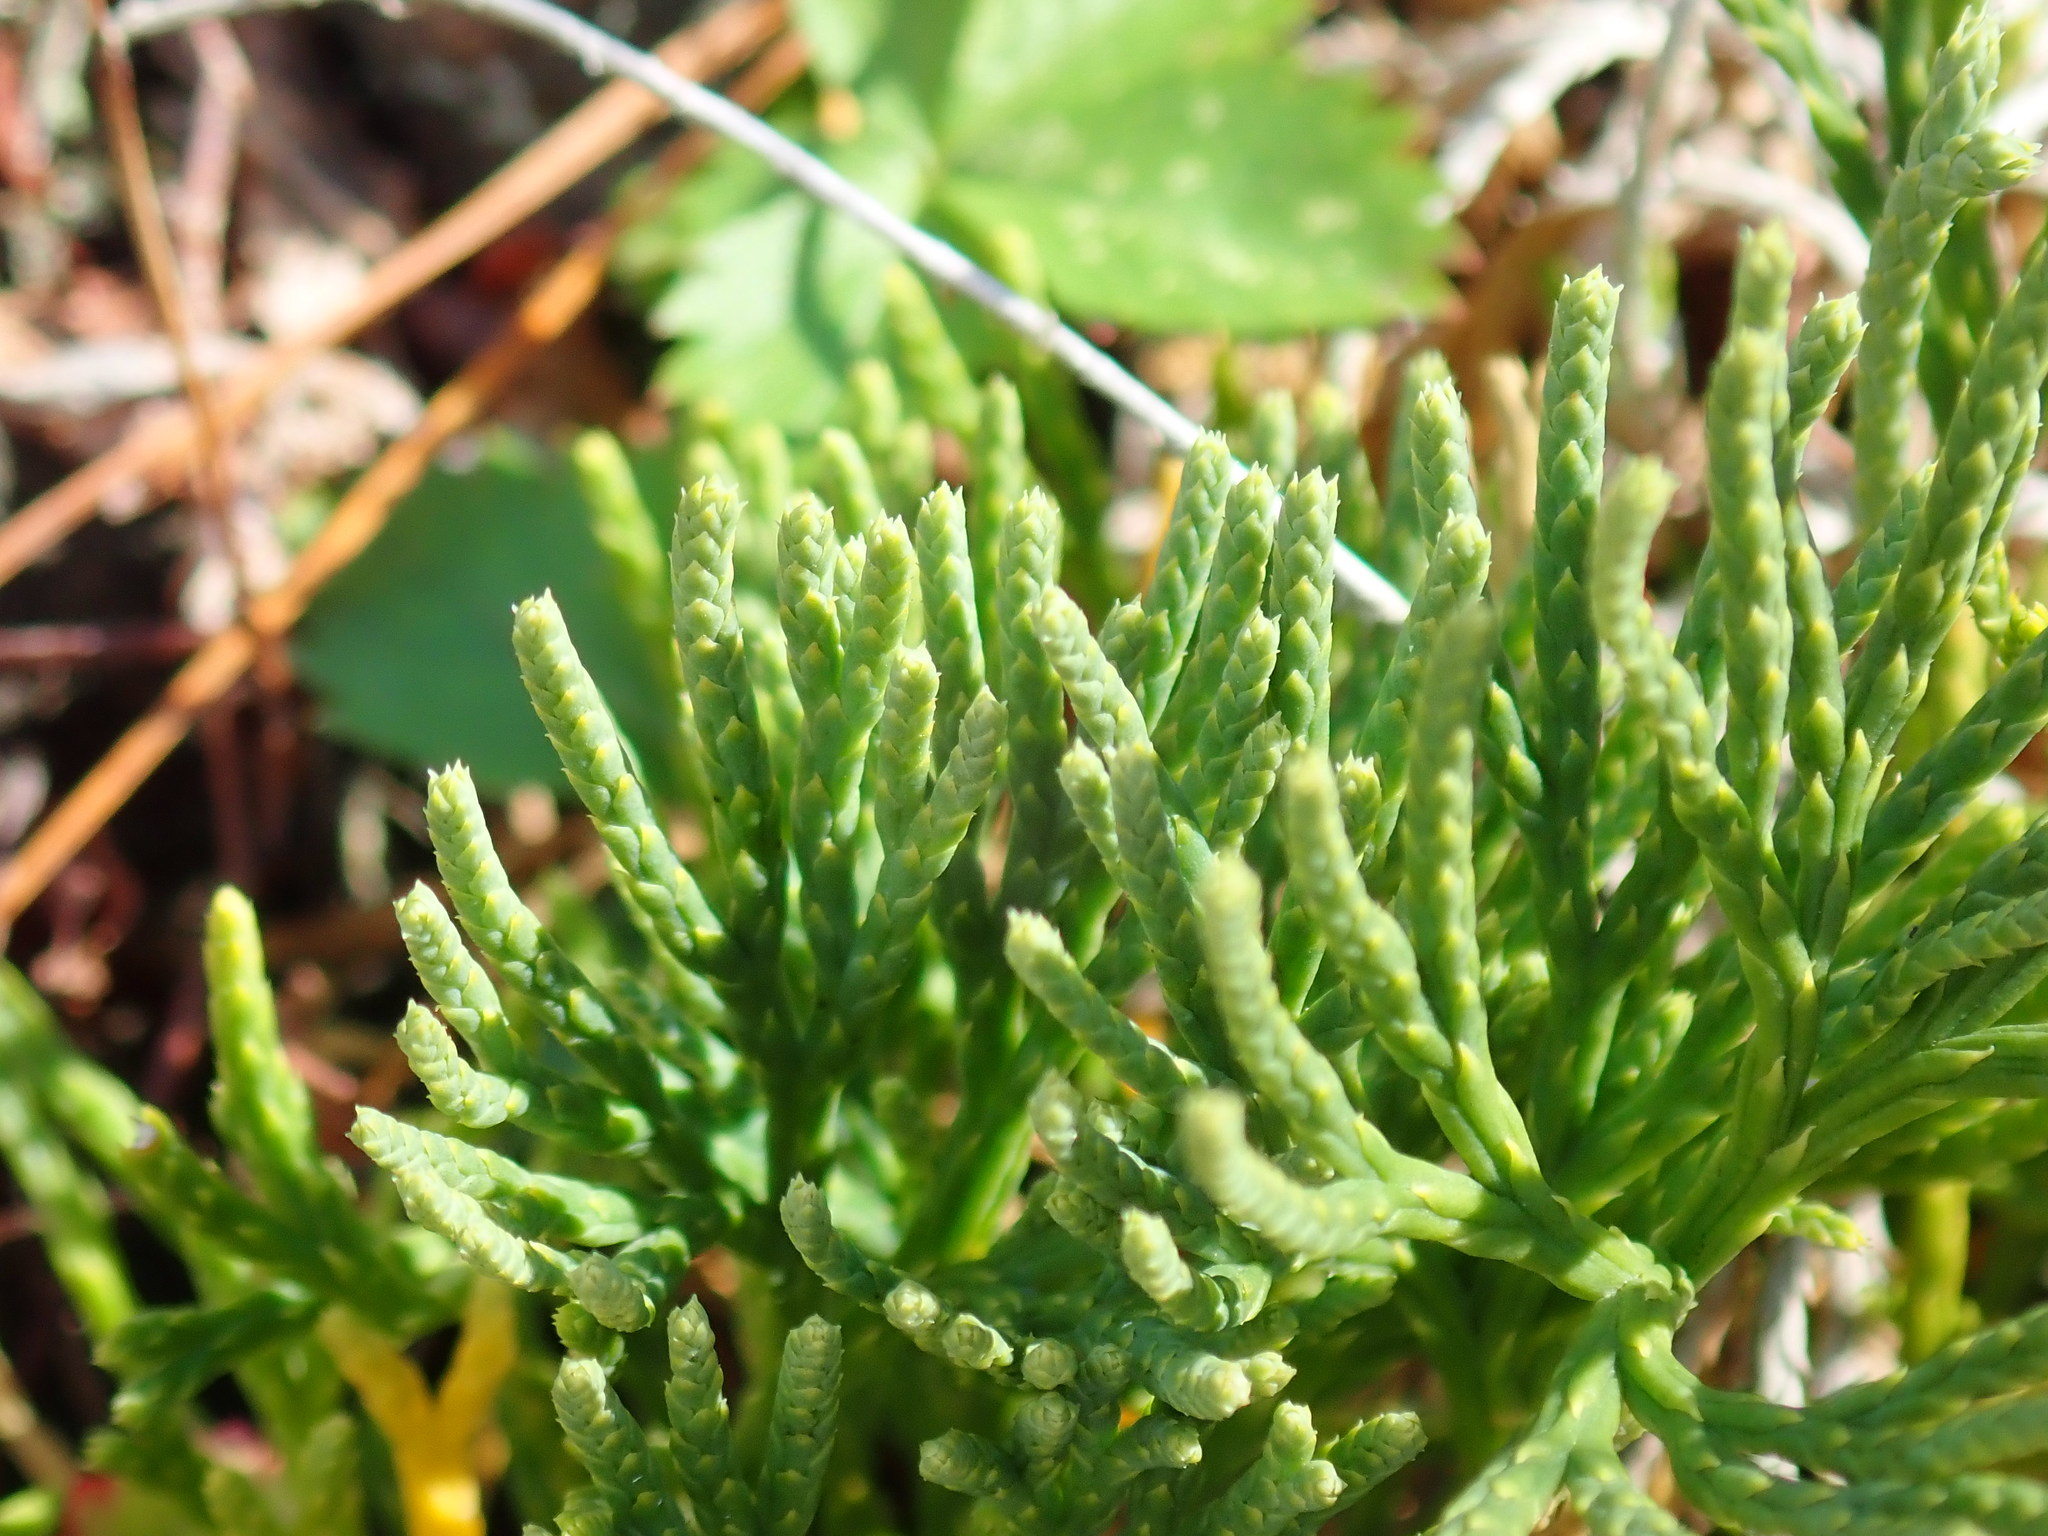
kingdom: Plantae
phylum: Tracheophyta
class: Lycopodiopsida
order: Lycopodiales
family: Lycopodiaceae
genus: Diphasiastrum
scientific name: Diphasiastrum tristachyum
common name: Blue ground-cedar
